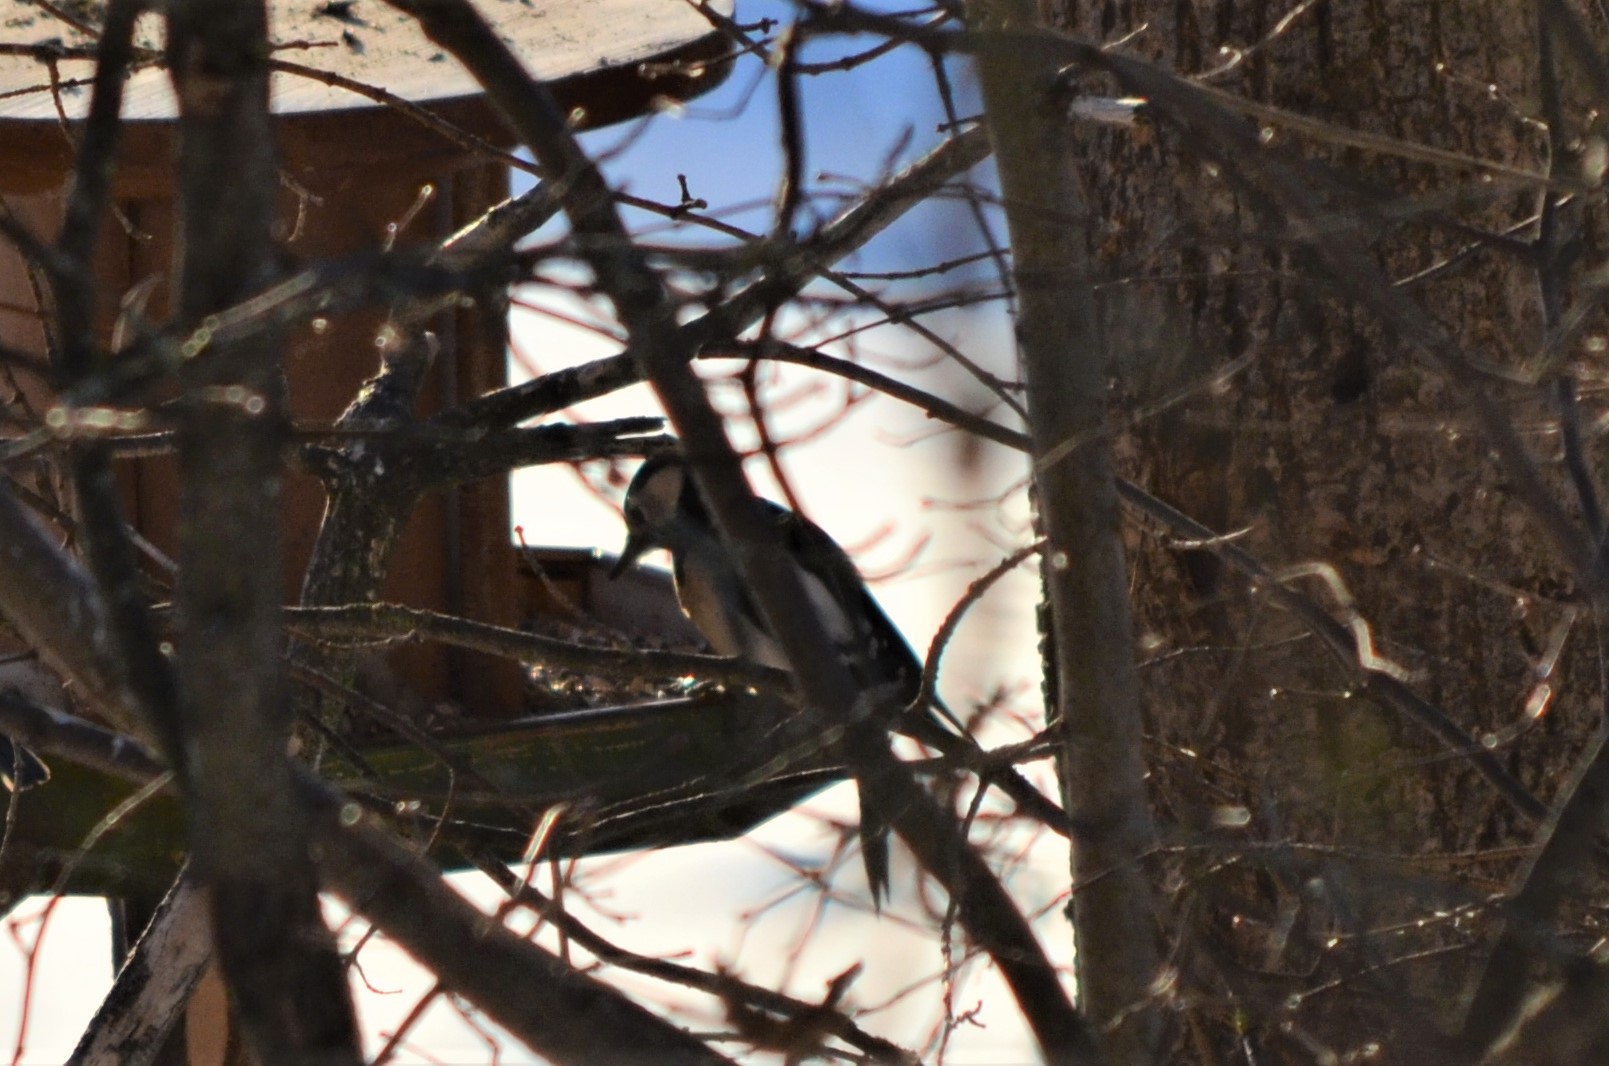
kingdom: Animalia
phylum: Chordata
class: Aves
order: Piciformes
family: Picidae
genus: Dendrocopos
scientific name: Dendrocopos major
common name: Great spotted woodpecker
